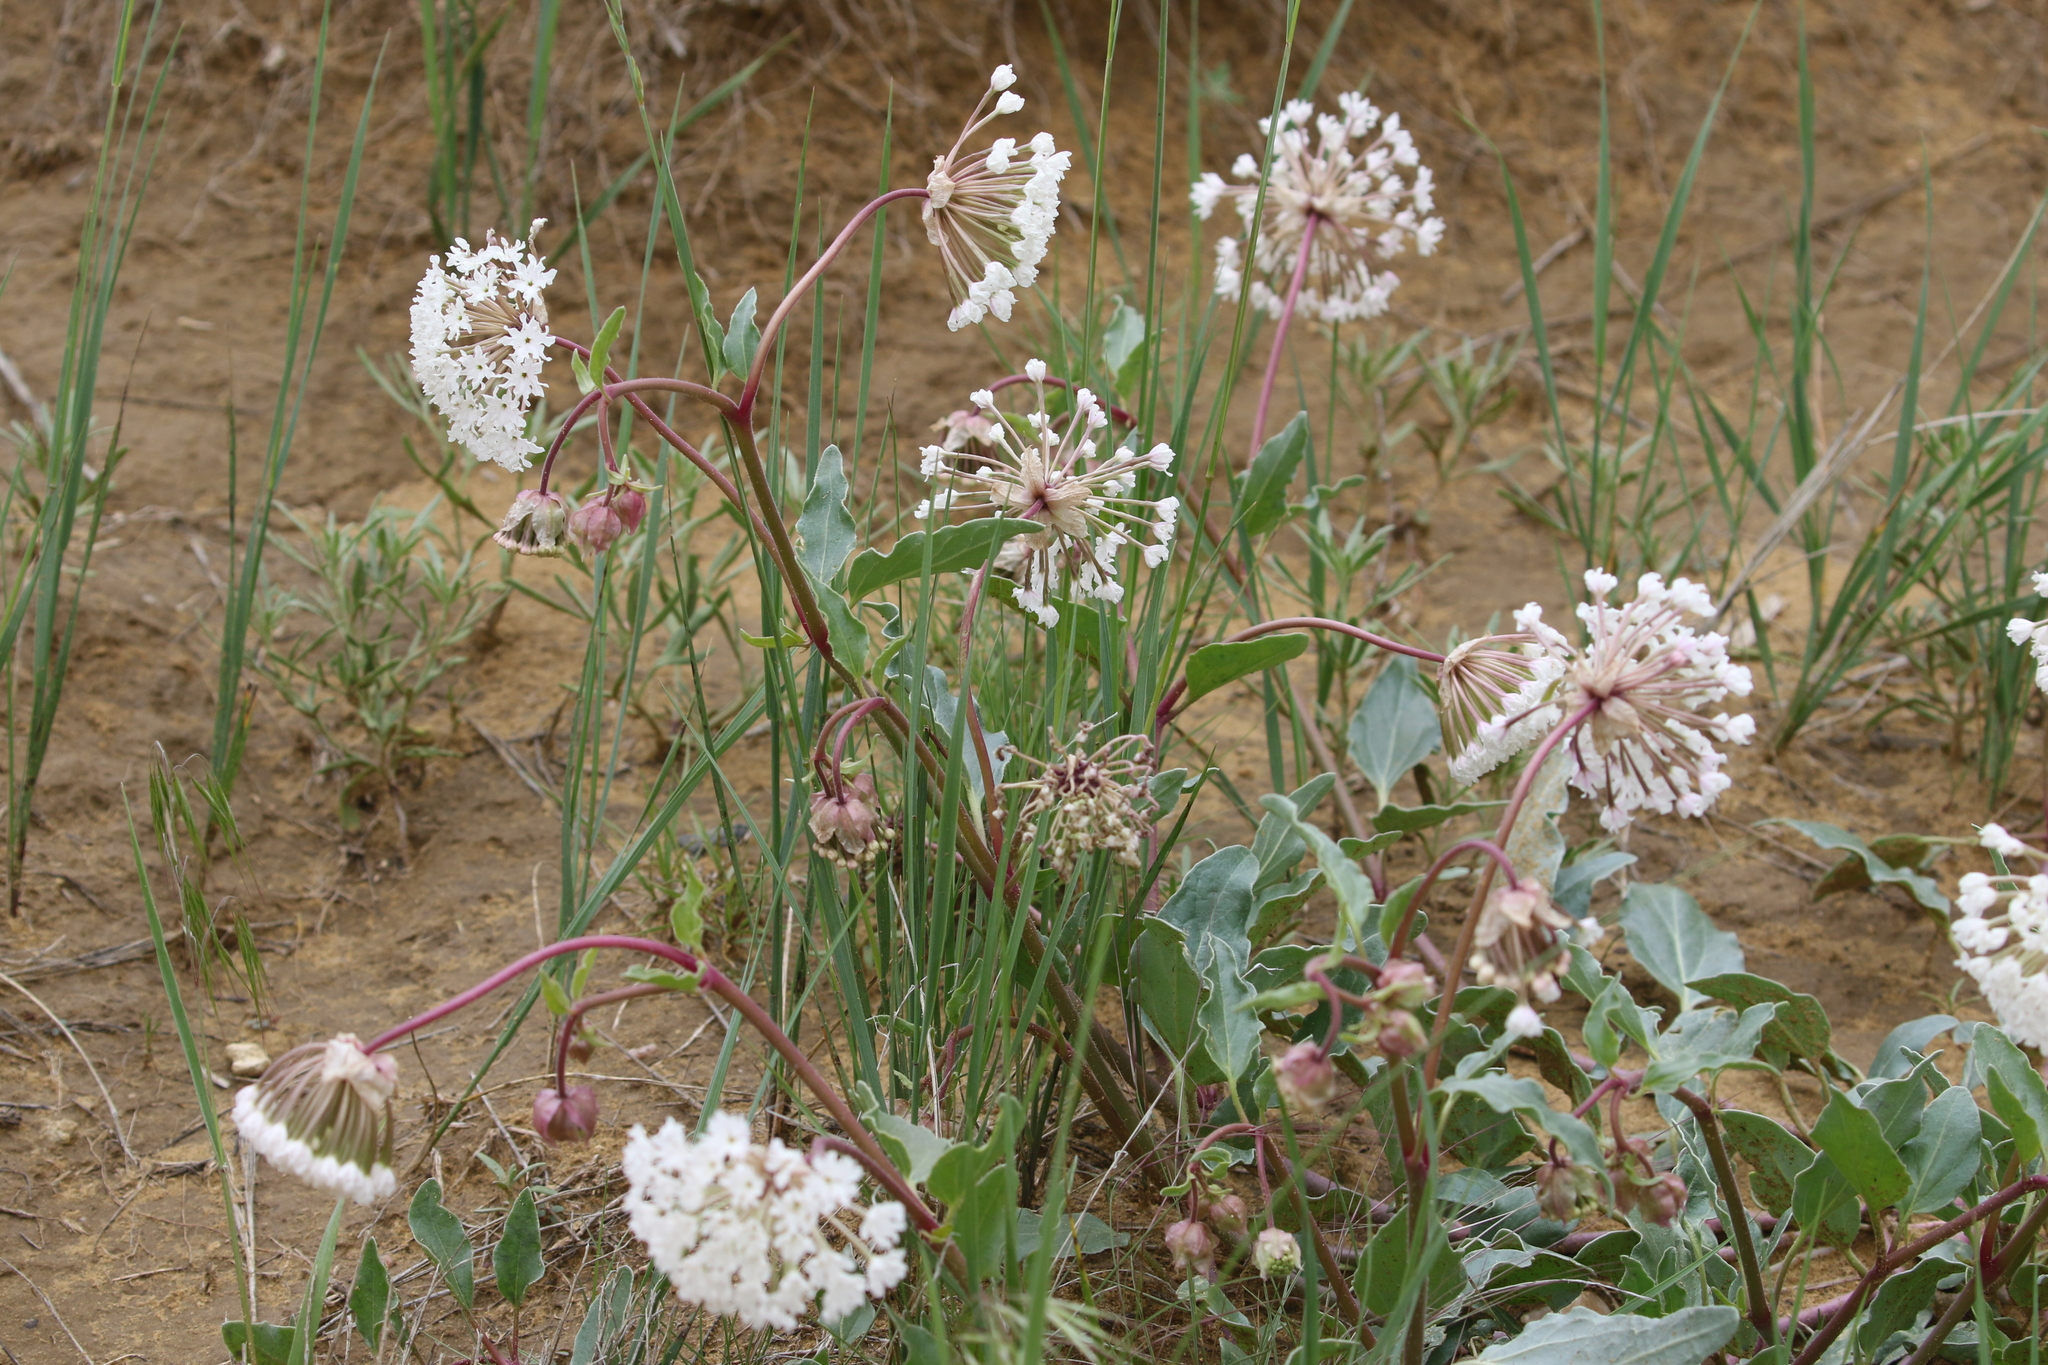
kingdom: Plantae
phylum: Tracheophyta
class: Magnoliopsida
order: Caryophyllales
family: Nyctaginaceae
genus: Abronia
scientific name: Abronia fragrans
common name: Fragrant sand-verbena
